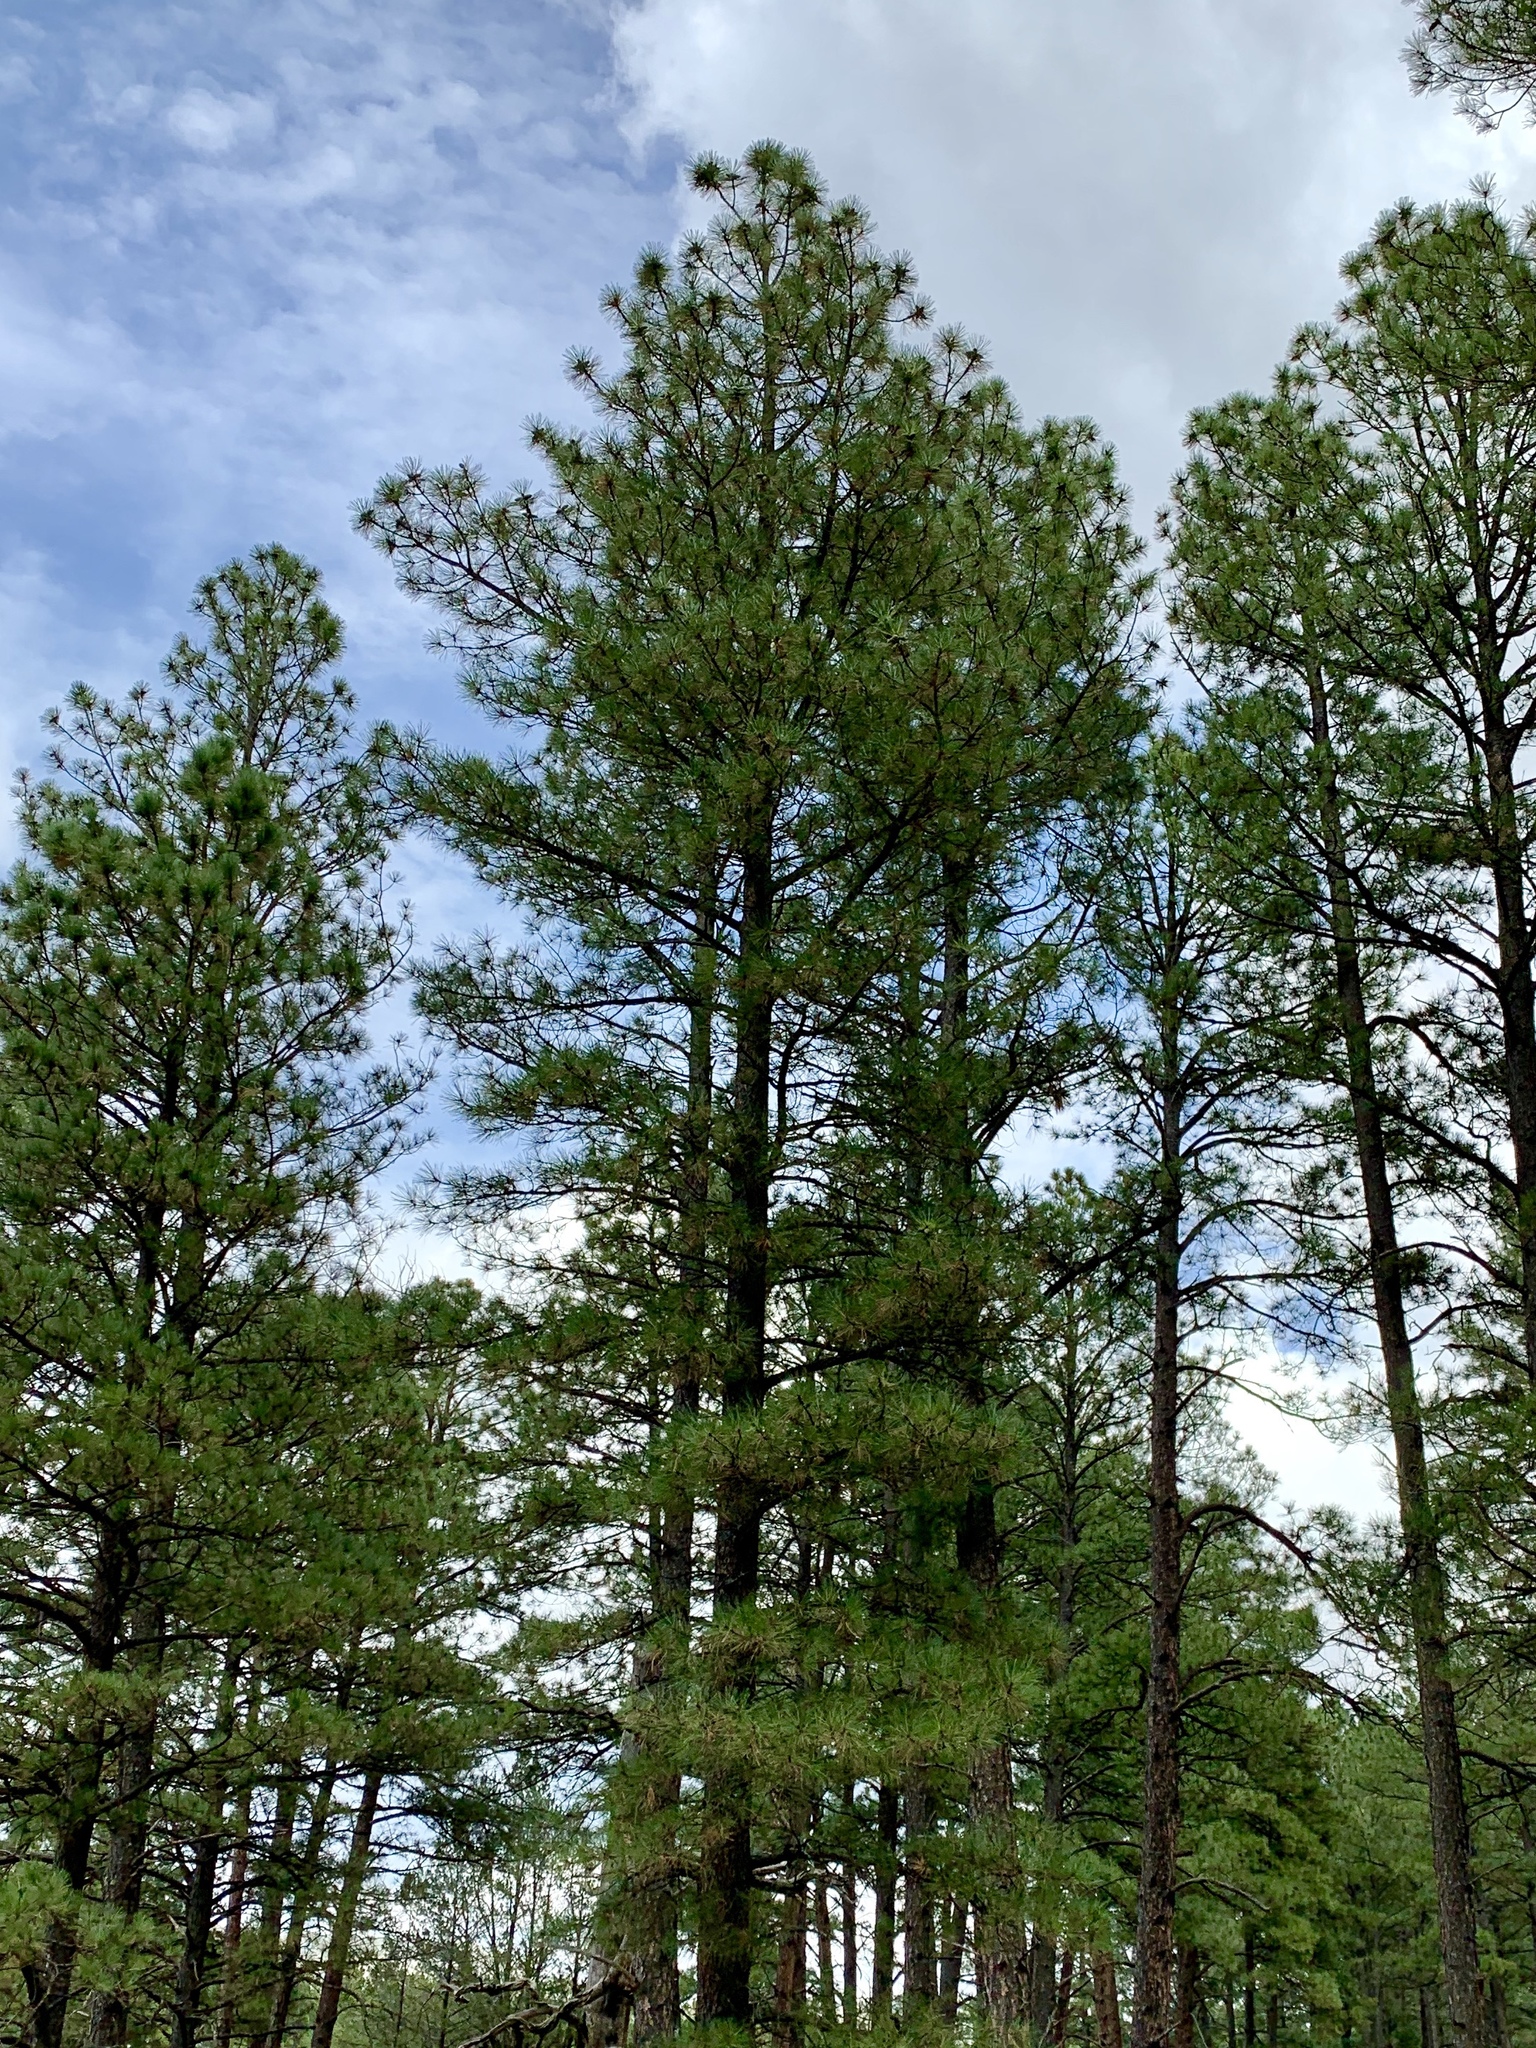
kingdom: Plantae
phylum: Tracheophyta
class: Pinopsida
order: Pinales
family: Pinaceae
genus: Pinus
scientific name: Pinus ponderosa
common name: Western yellow-pine
